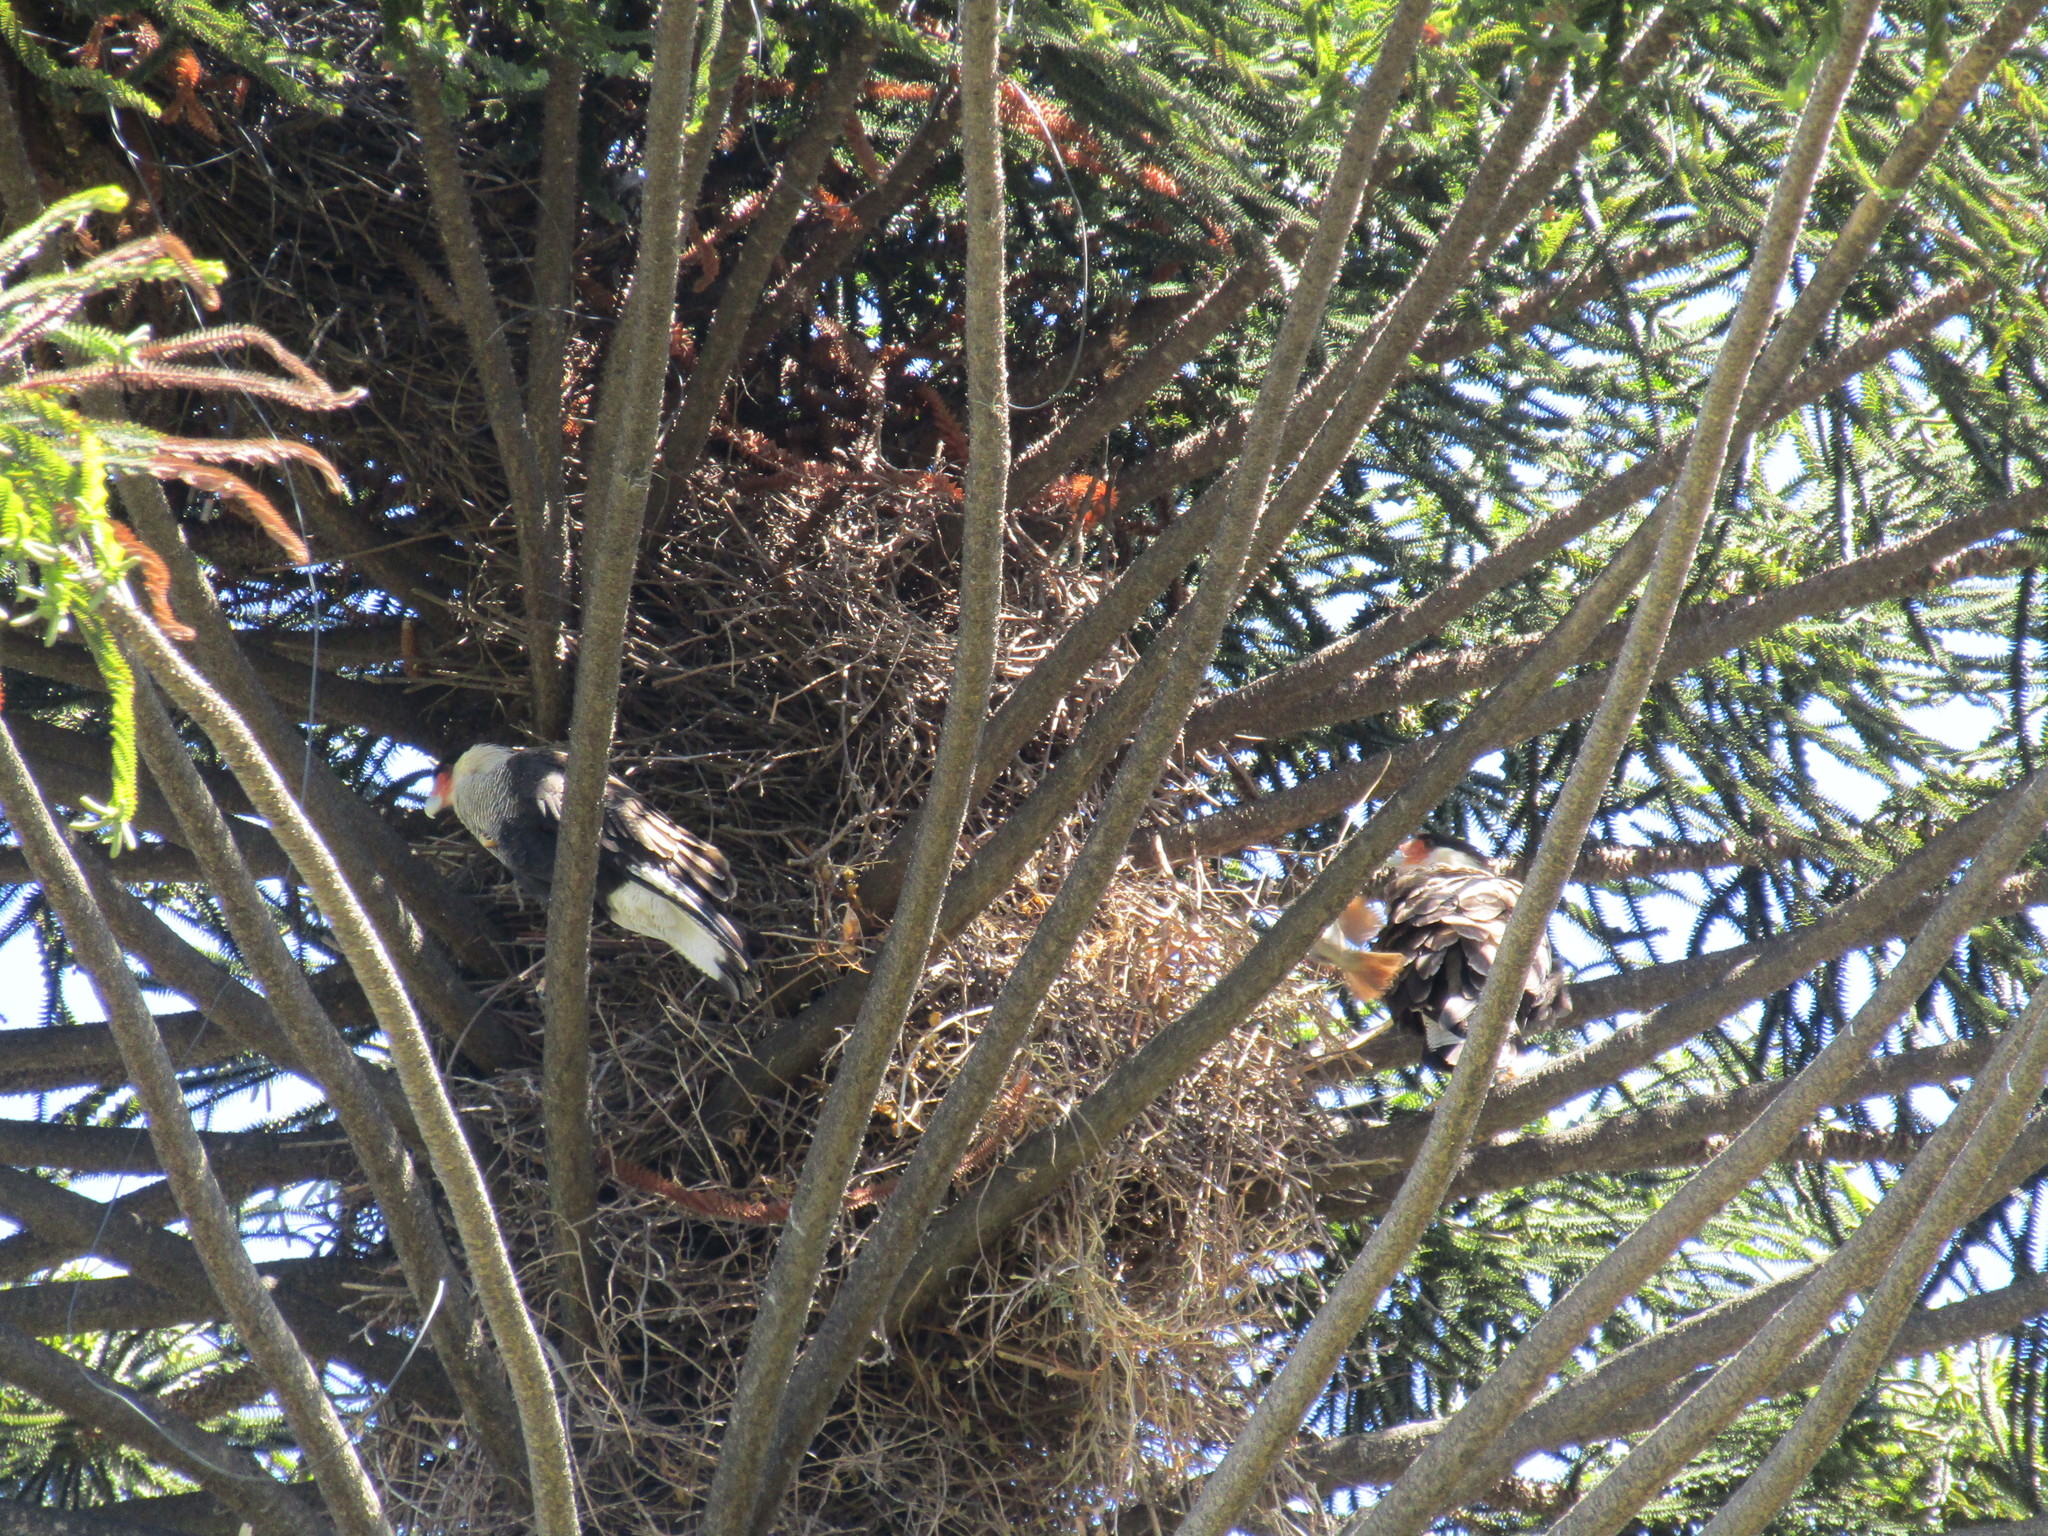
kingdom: Animalia
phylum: Chordata
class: Aves
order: Falconiformes
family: Falconidae
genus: Caracara
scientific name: Caracara plancus
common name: Southern caracara
